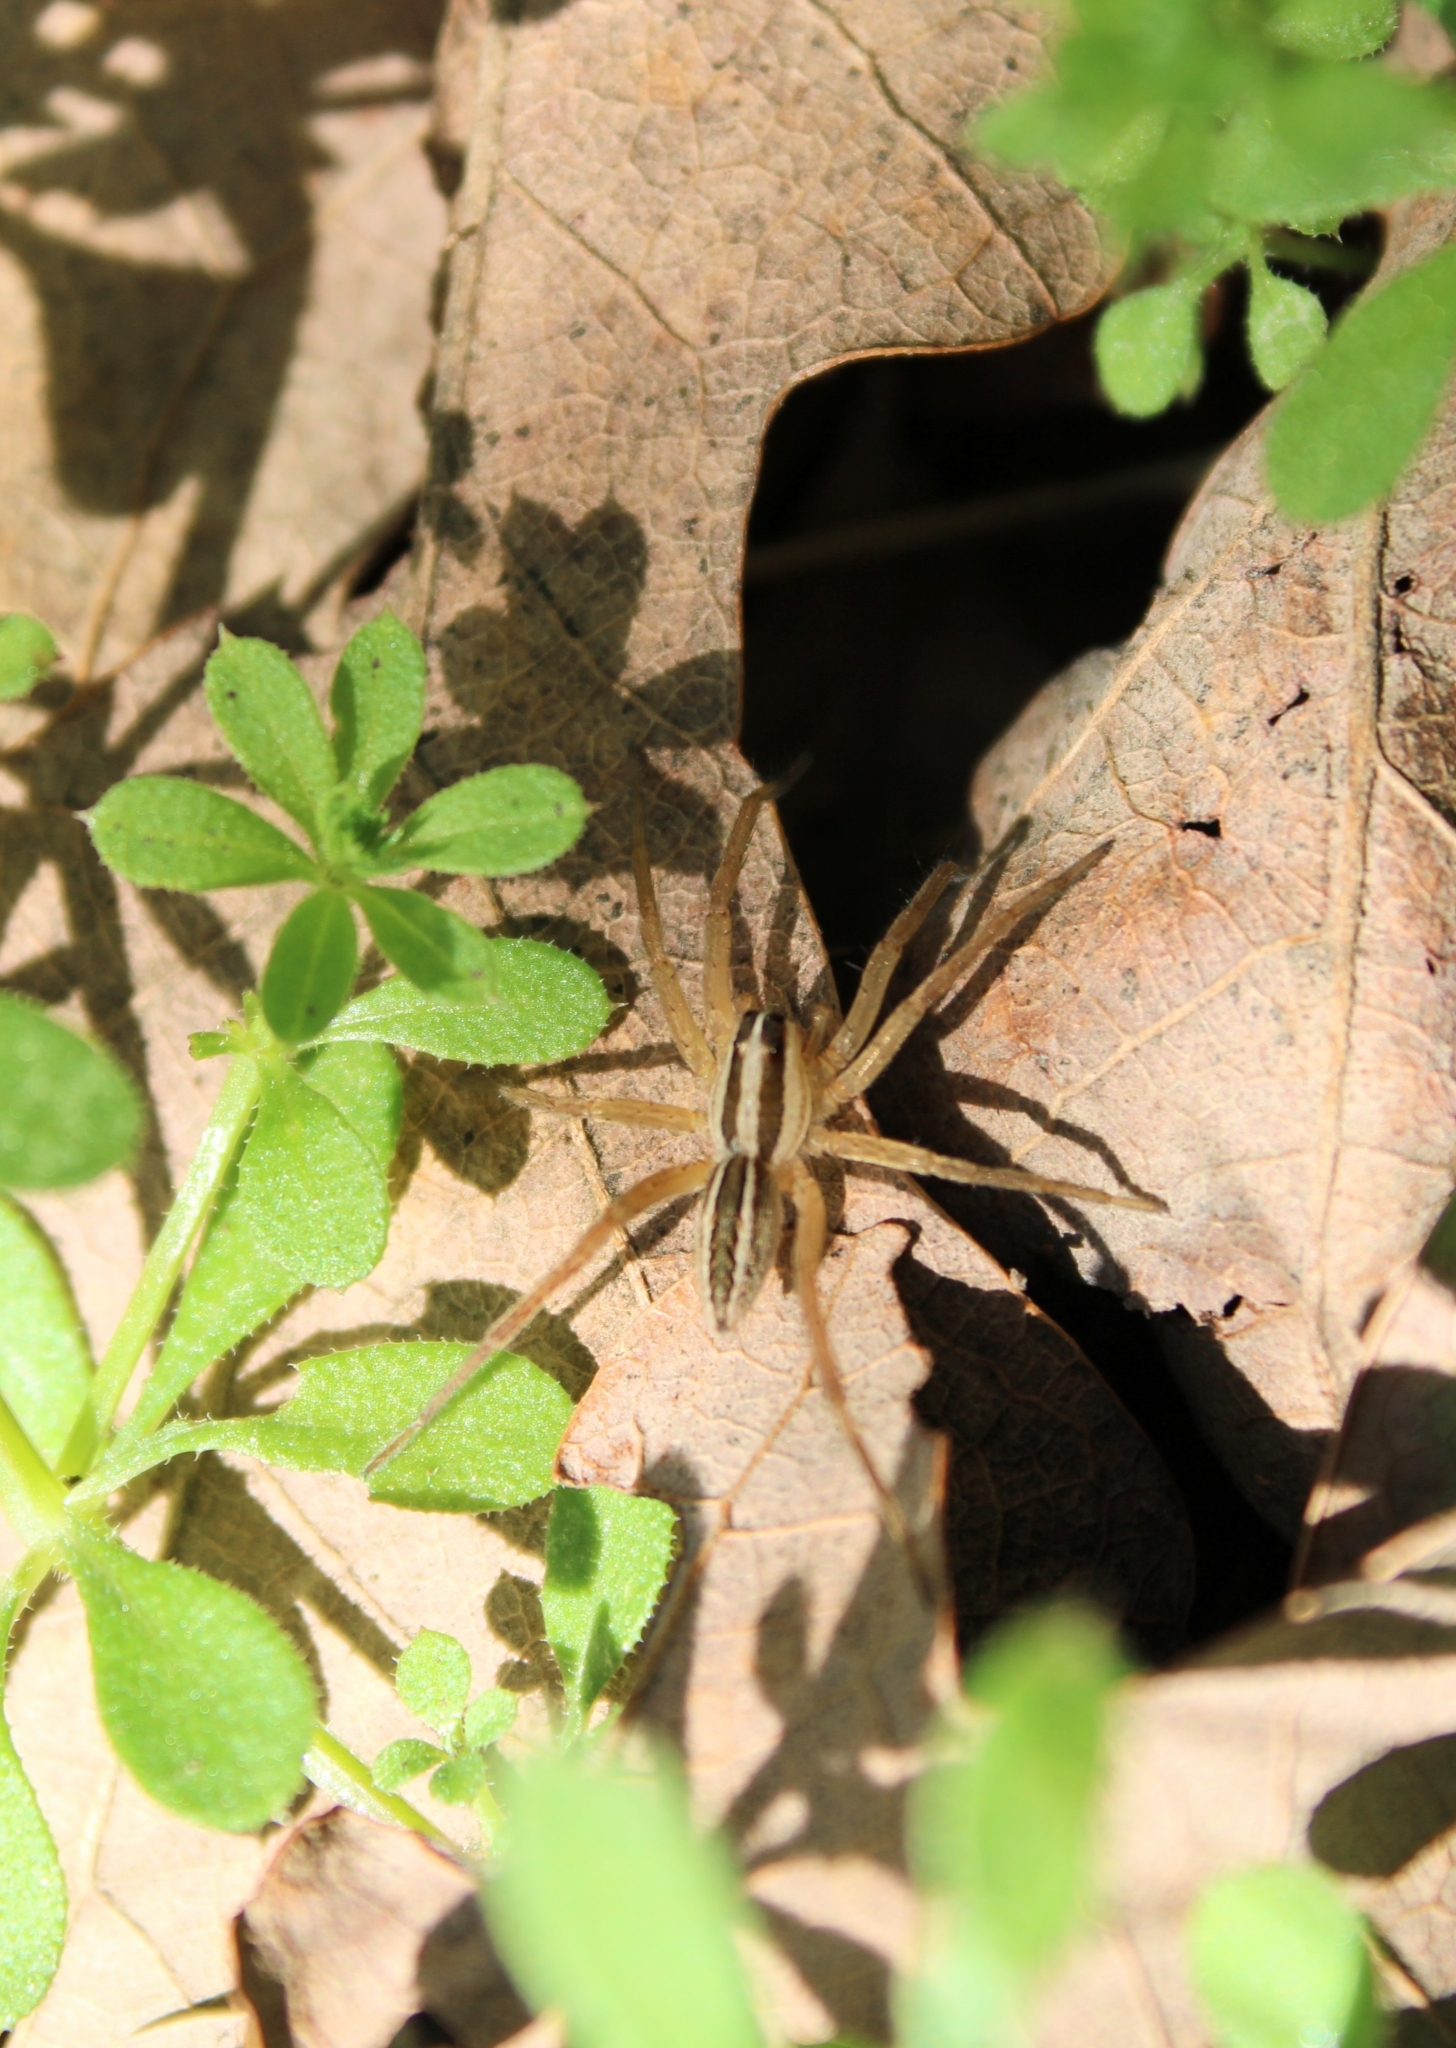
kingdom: Animalia
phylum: Arthropoda
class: Arachnida
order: Araneae
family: Lycosidae
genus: Rabidosa
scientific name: Rabidosa rabida
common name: Rabid wolf spider
